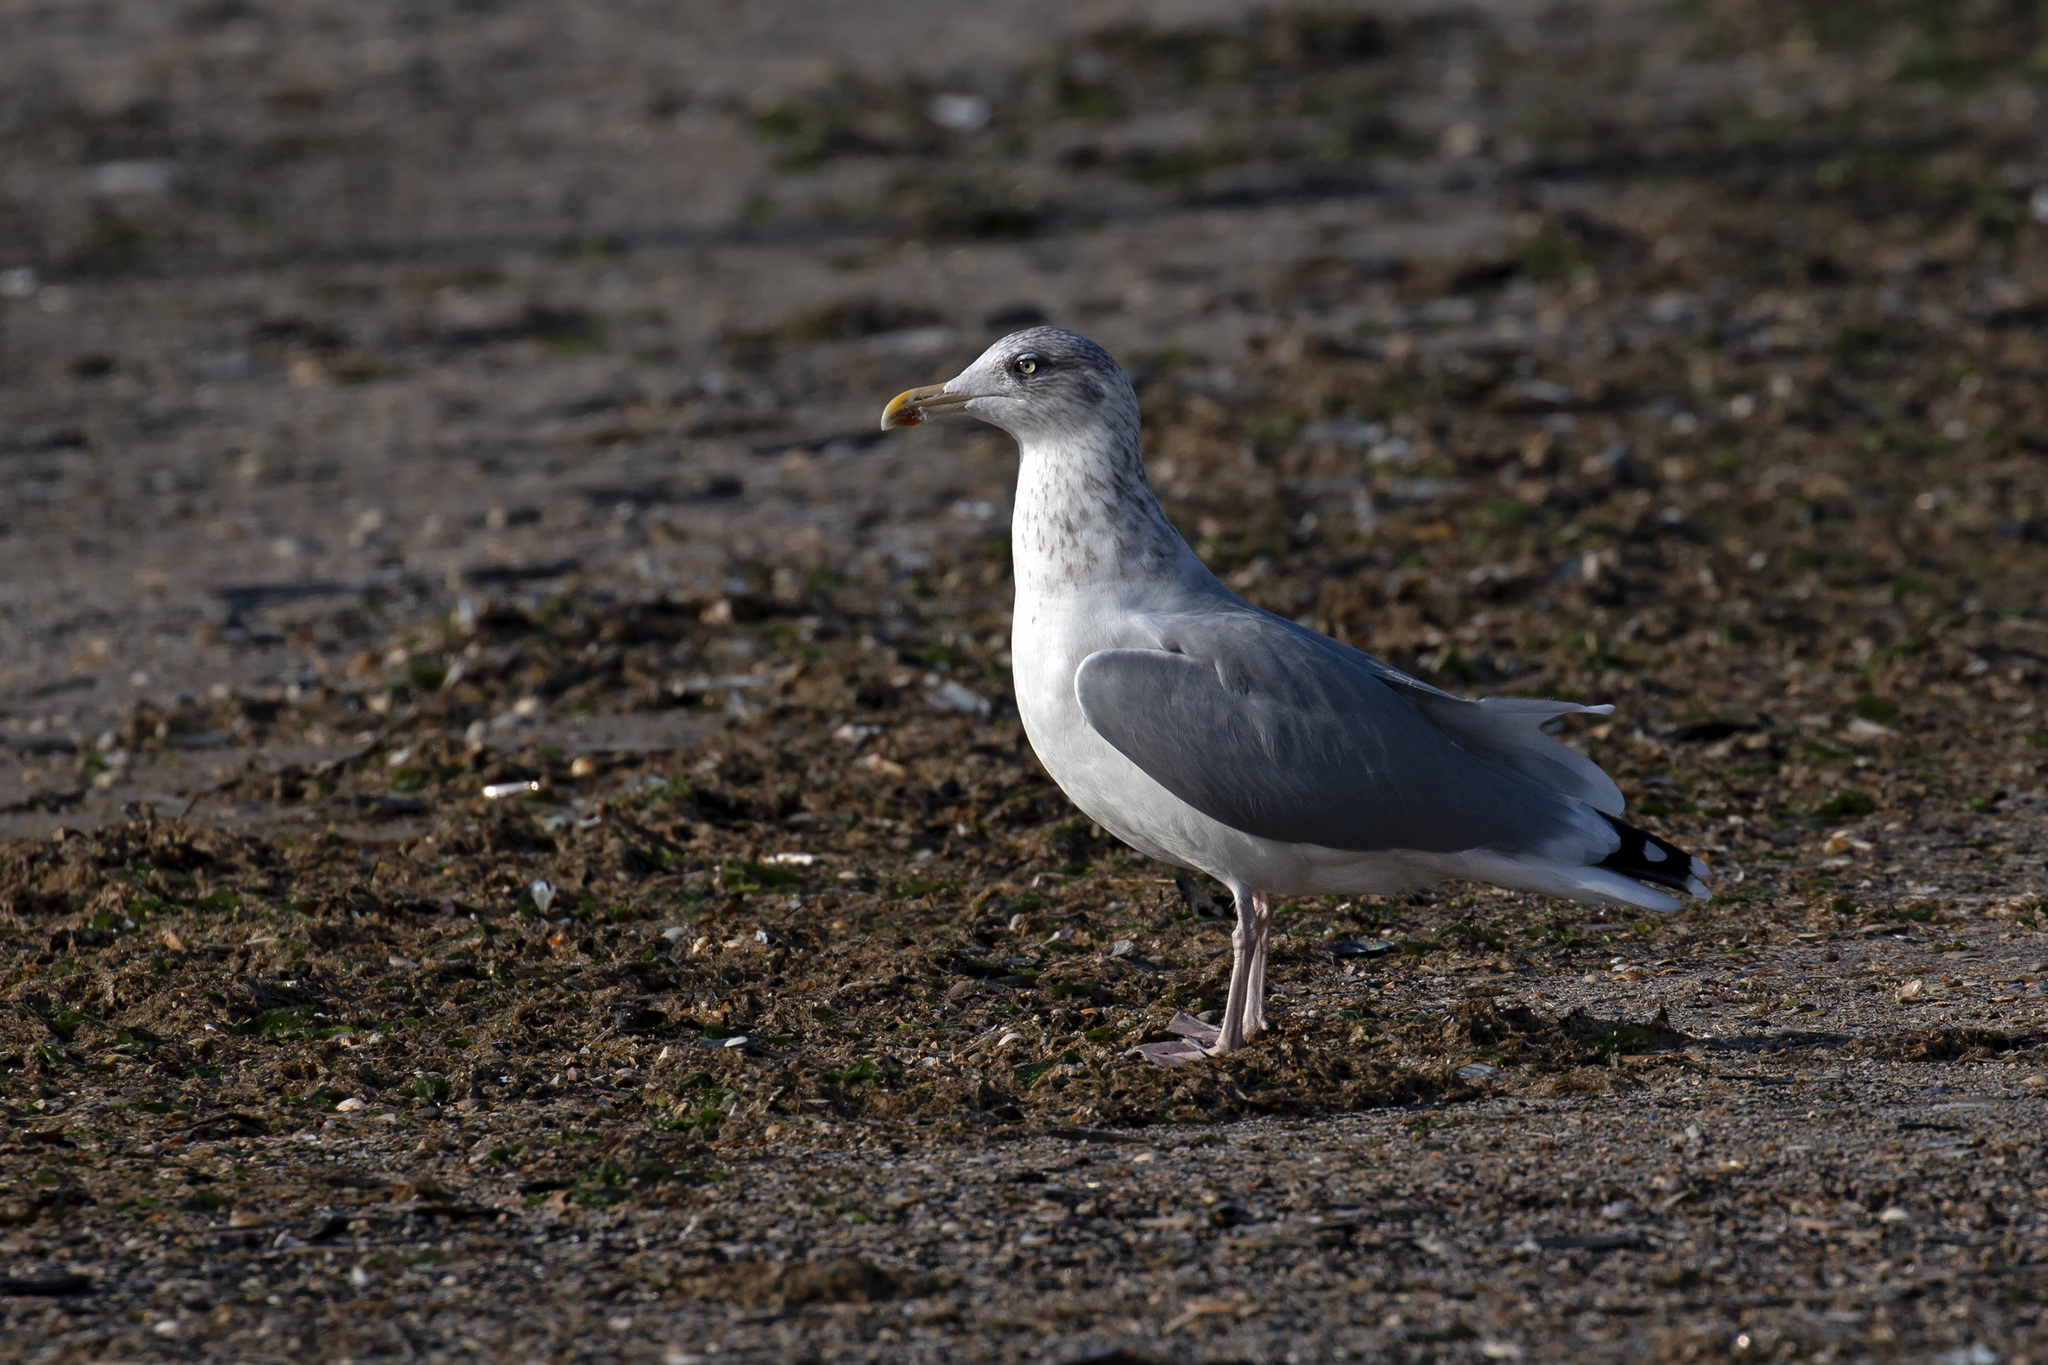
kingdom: Animalia
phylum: Chordata
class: Aves
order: Charadriiformes
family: Laridae
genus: Larus
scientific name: Larus argentatus
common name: Herring gull
